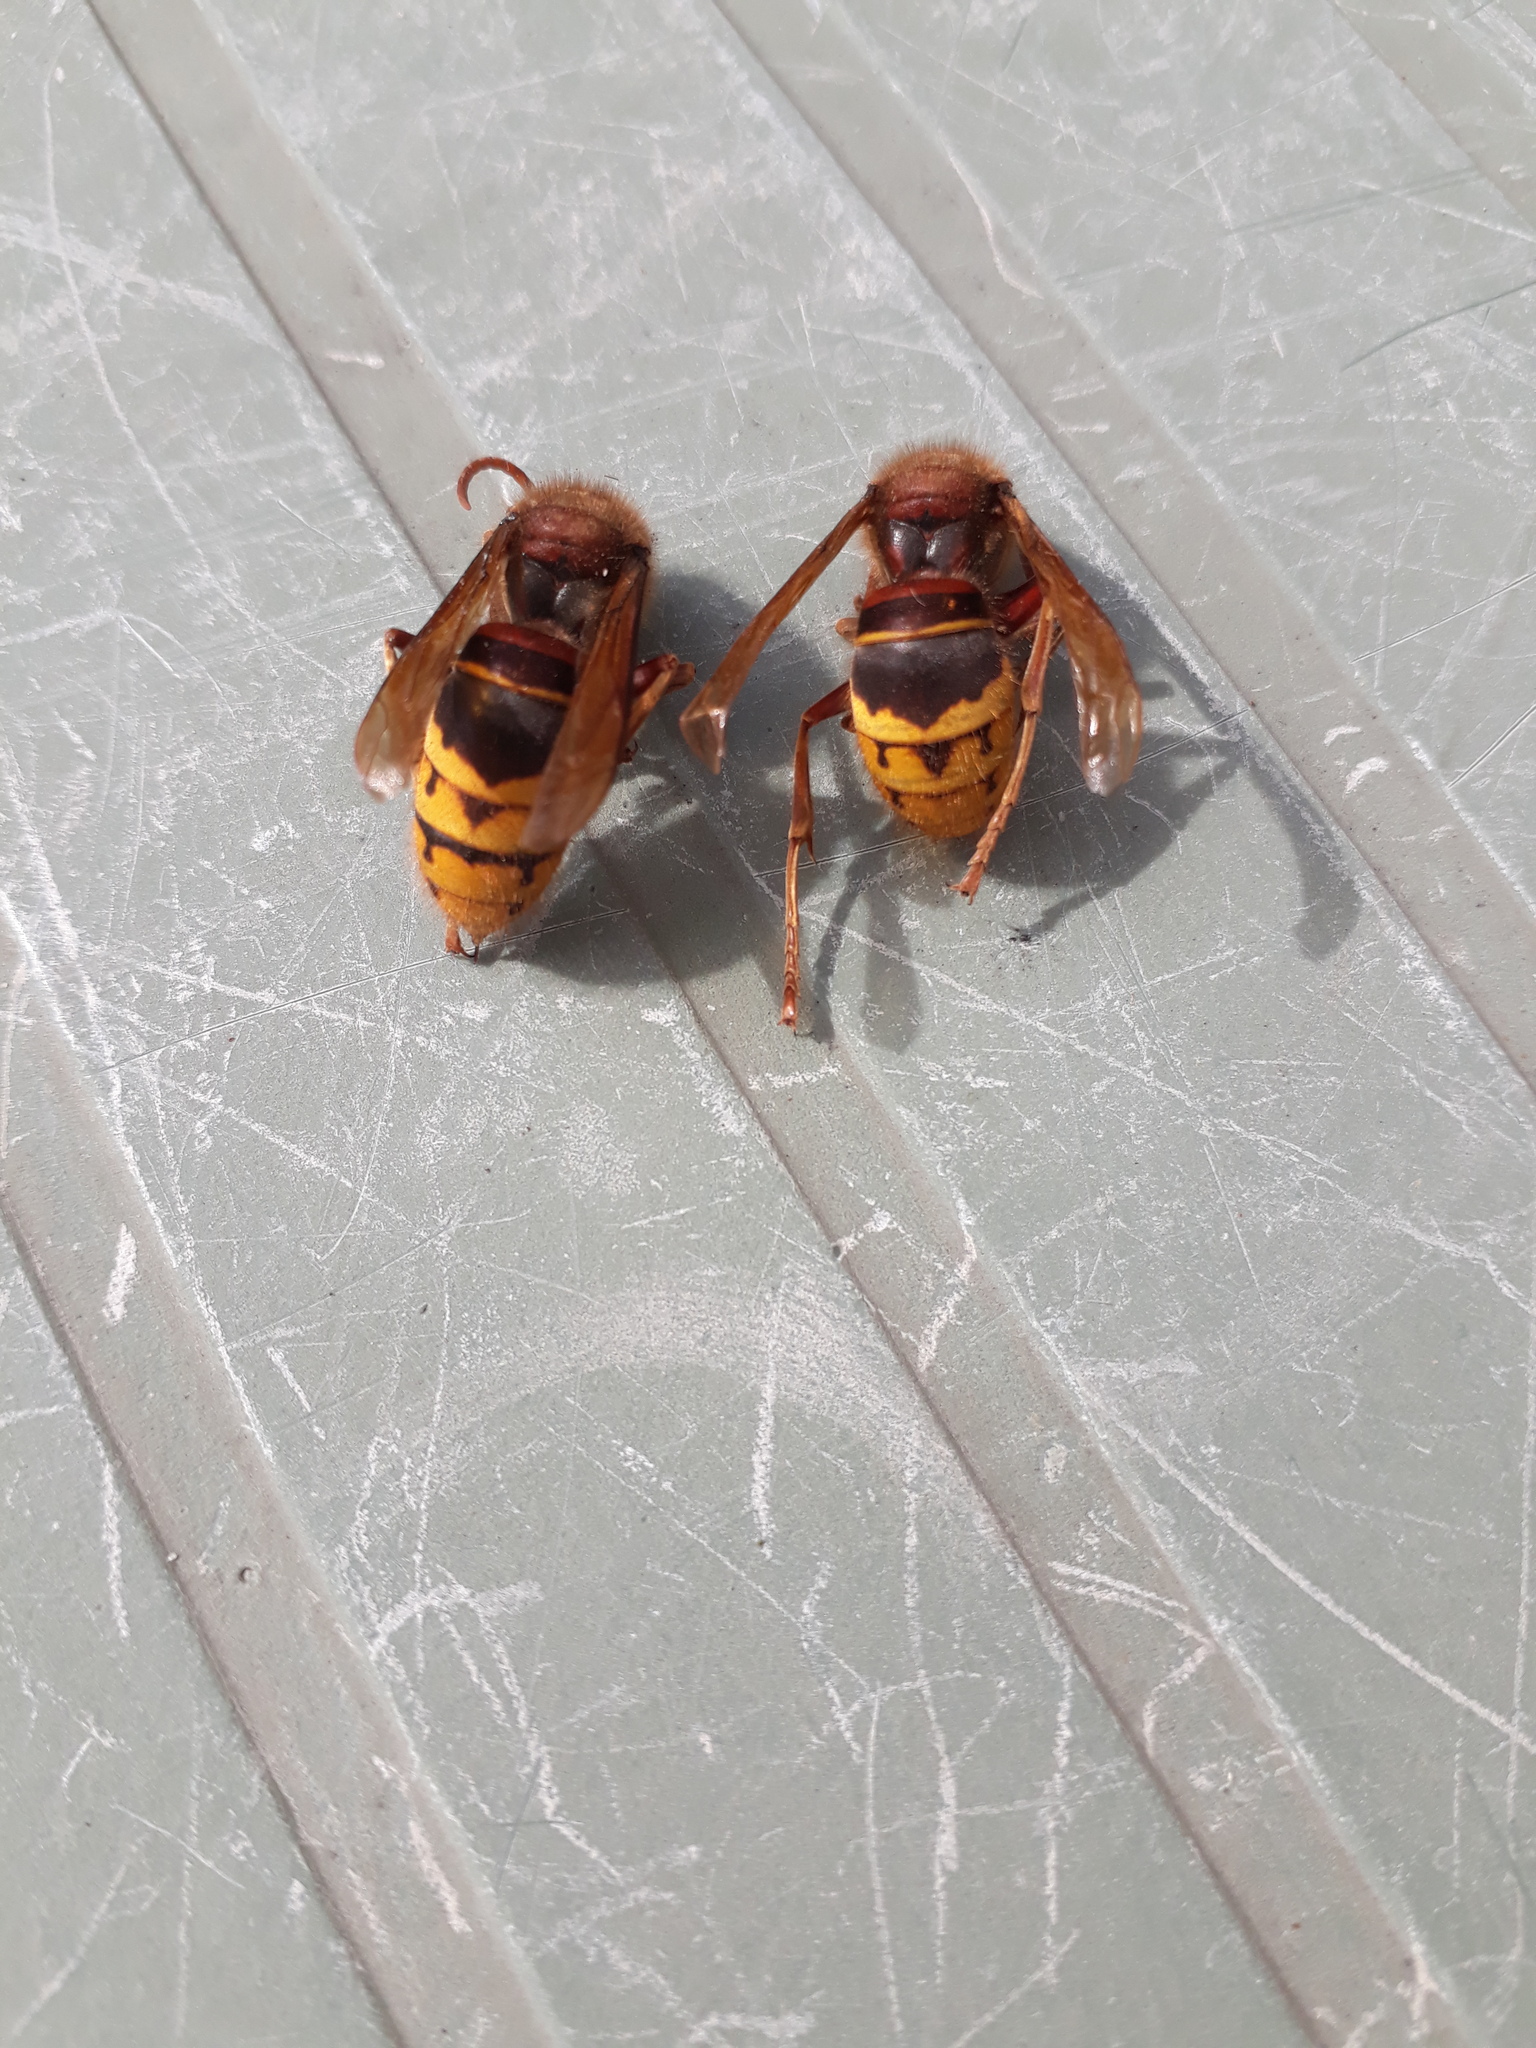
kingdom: Animalia
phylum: Arthropoda
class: Insecta
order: Hymenoptera
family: Vespidae
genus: Vespa
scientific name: Vespa crabro
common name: Hornet
